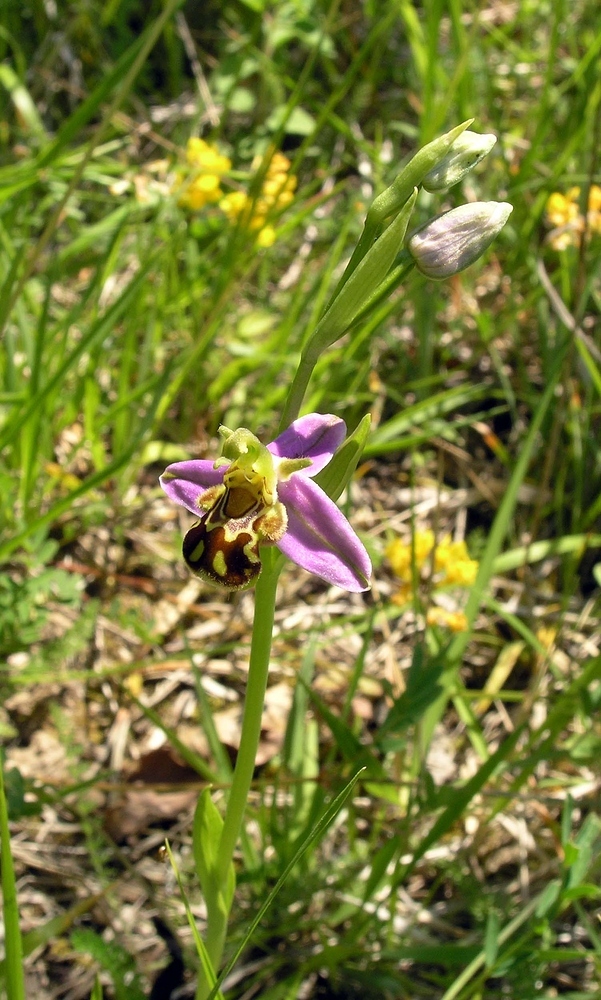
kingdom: Plantae
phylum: Tracheophyta
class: Liliopsida
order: Asparagales
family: Orchidaceae
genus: Ophrys
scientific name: Ophrys apifera
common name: Bee orchid
